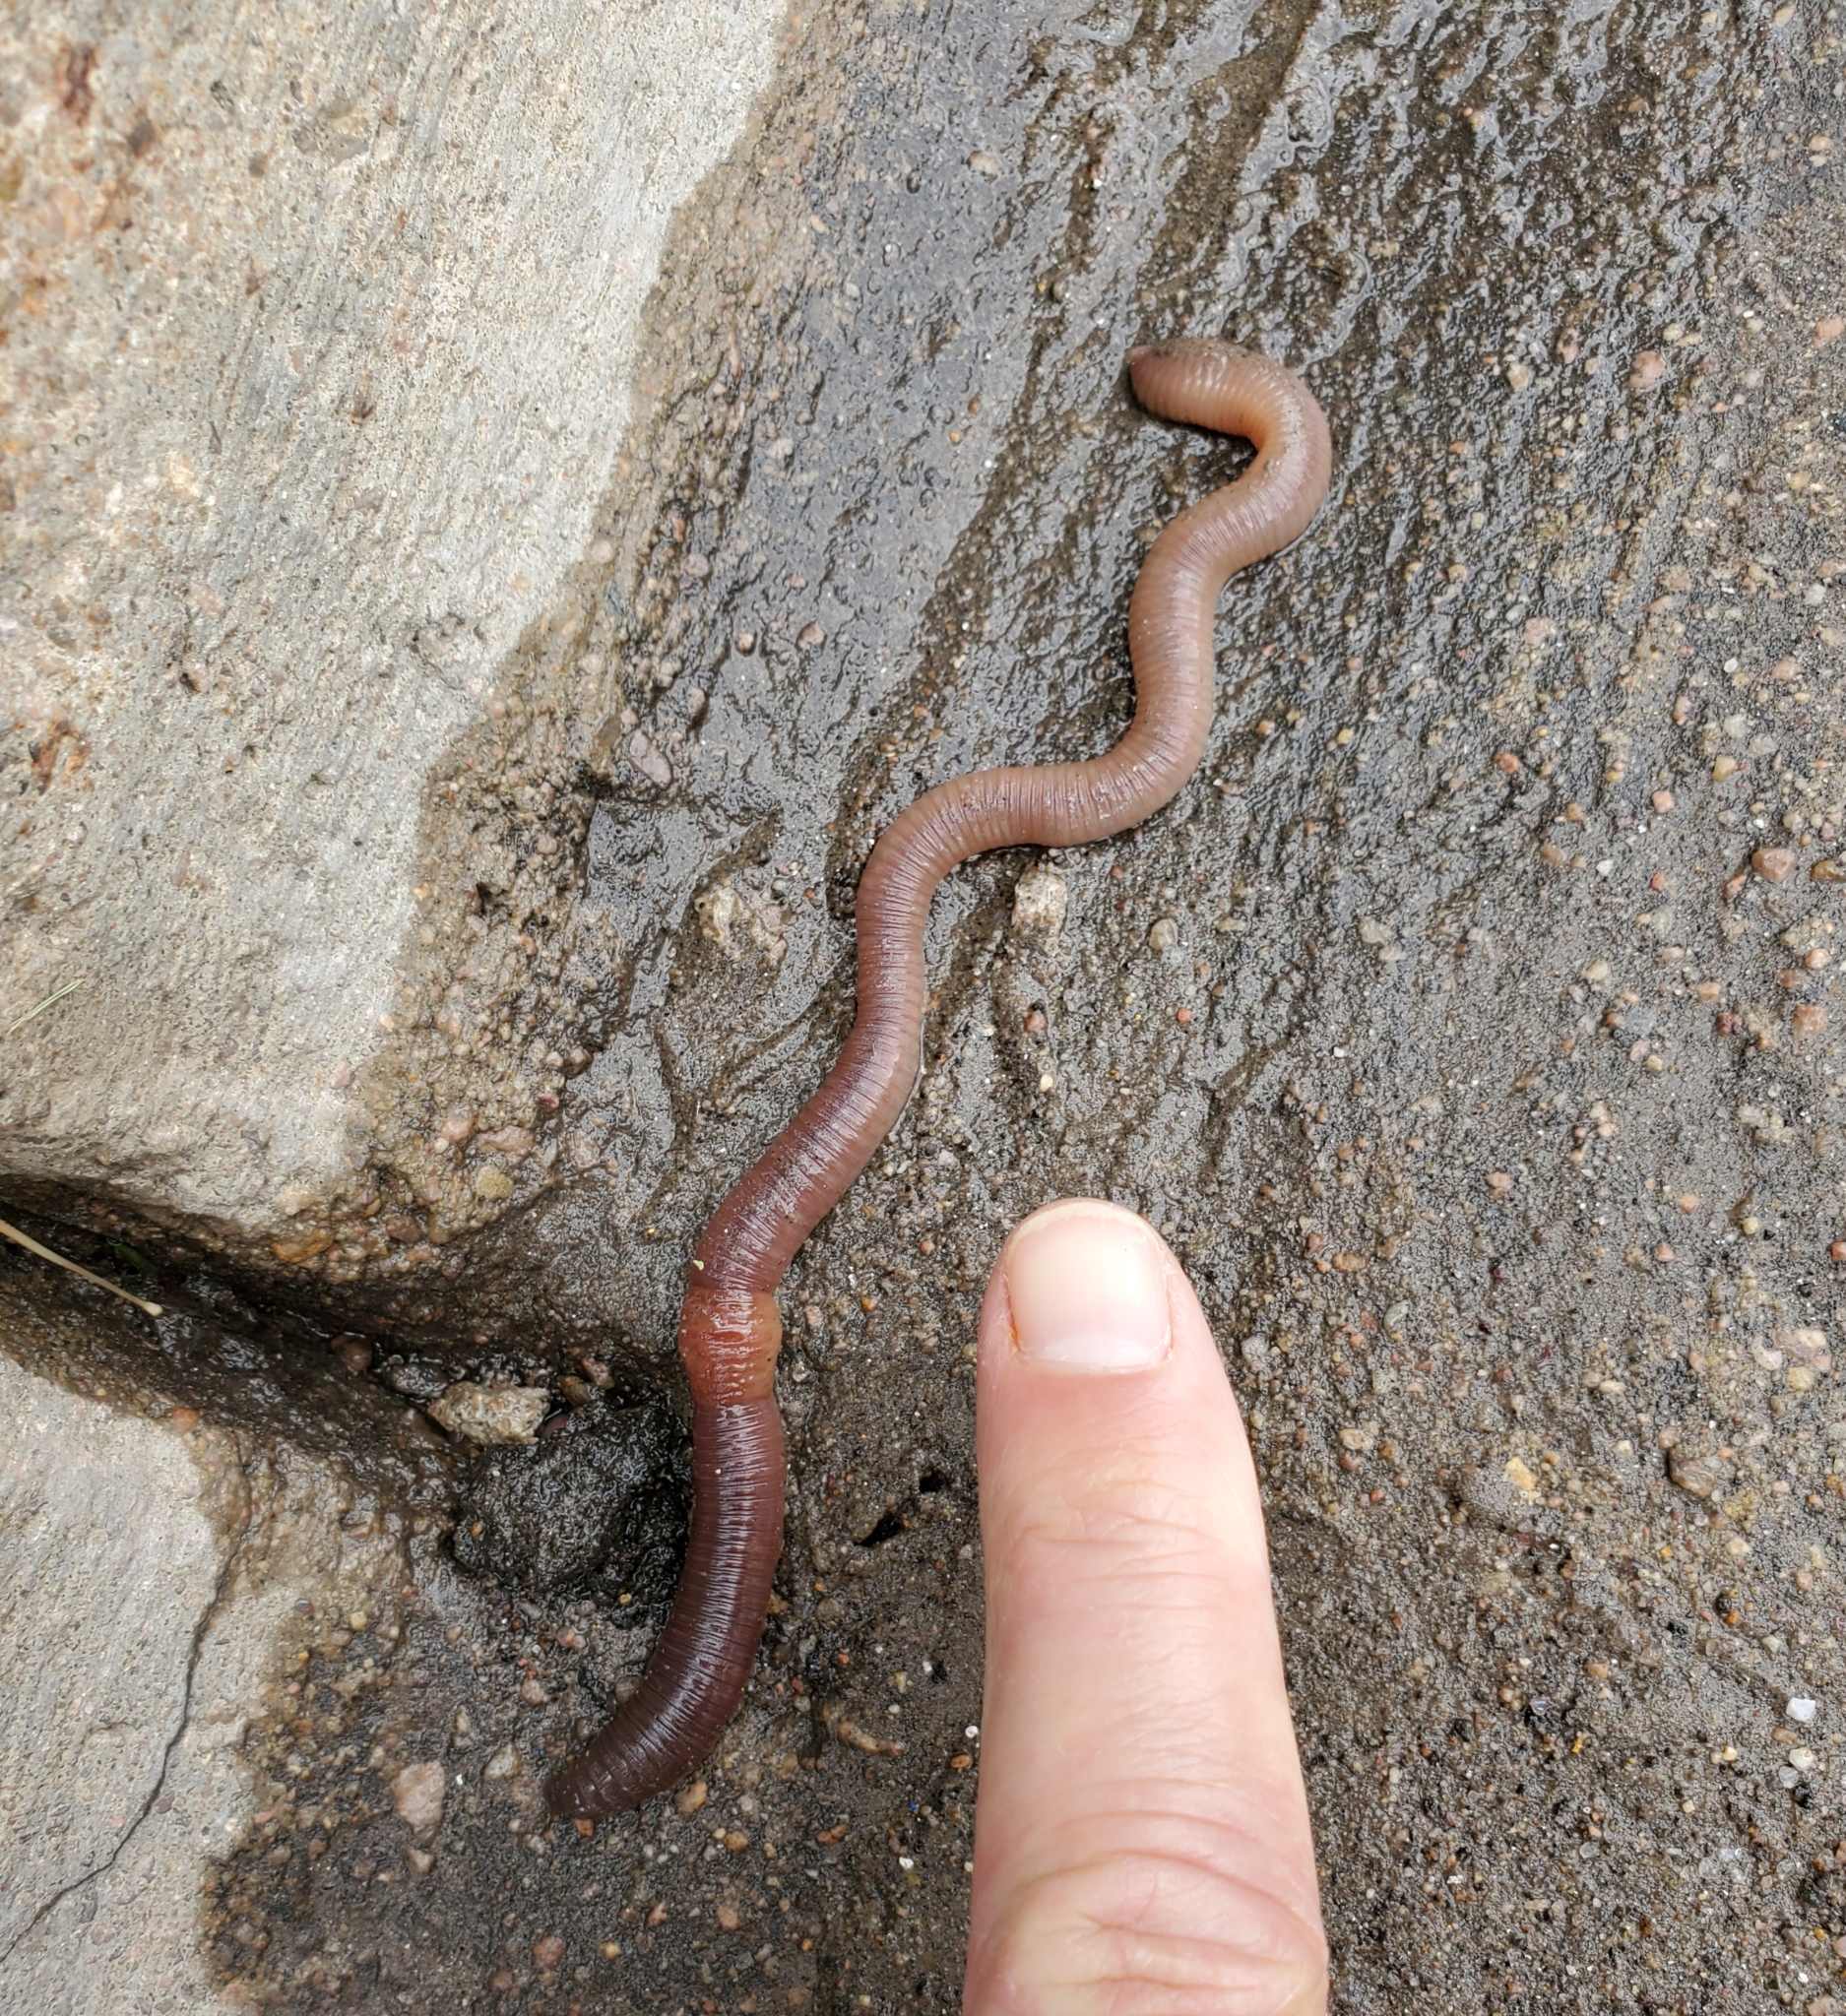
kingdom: Animalia
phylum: Annelida
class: Clitellata
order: Crassiclitellata
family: Lumbricidae
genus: Lumbricus
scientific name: Lumbricus terrestris
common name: Common earthworm
